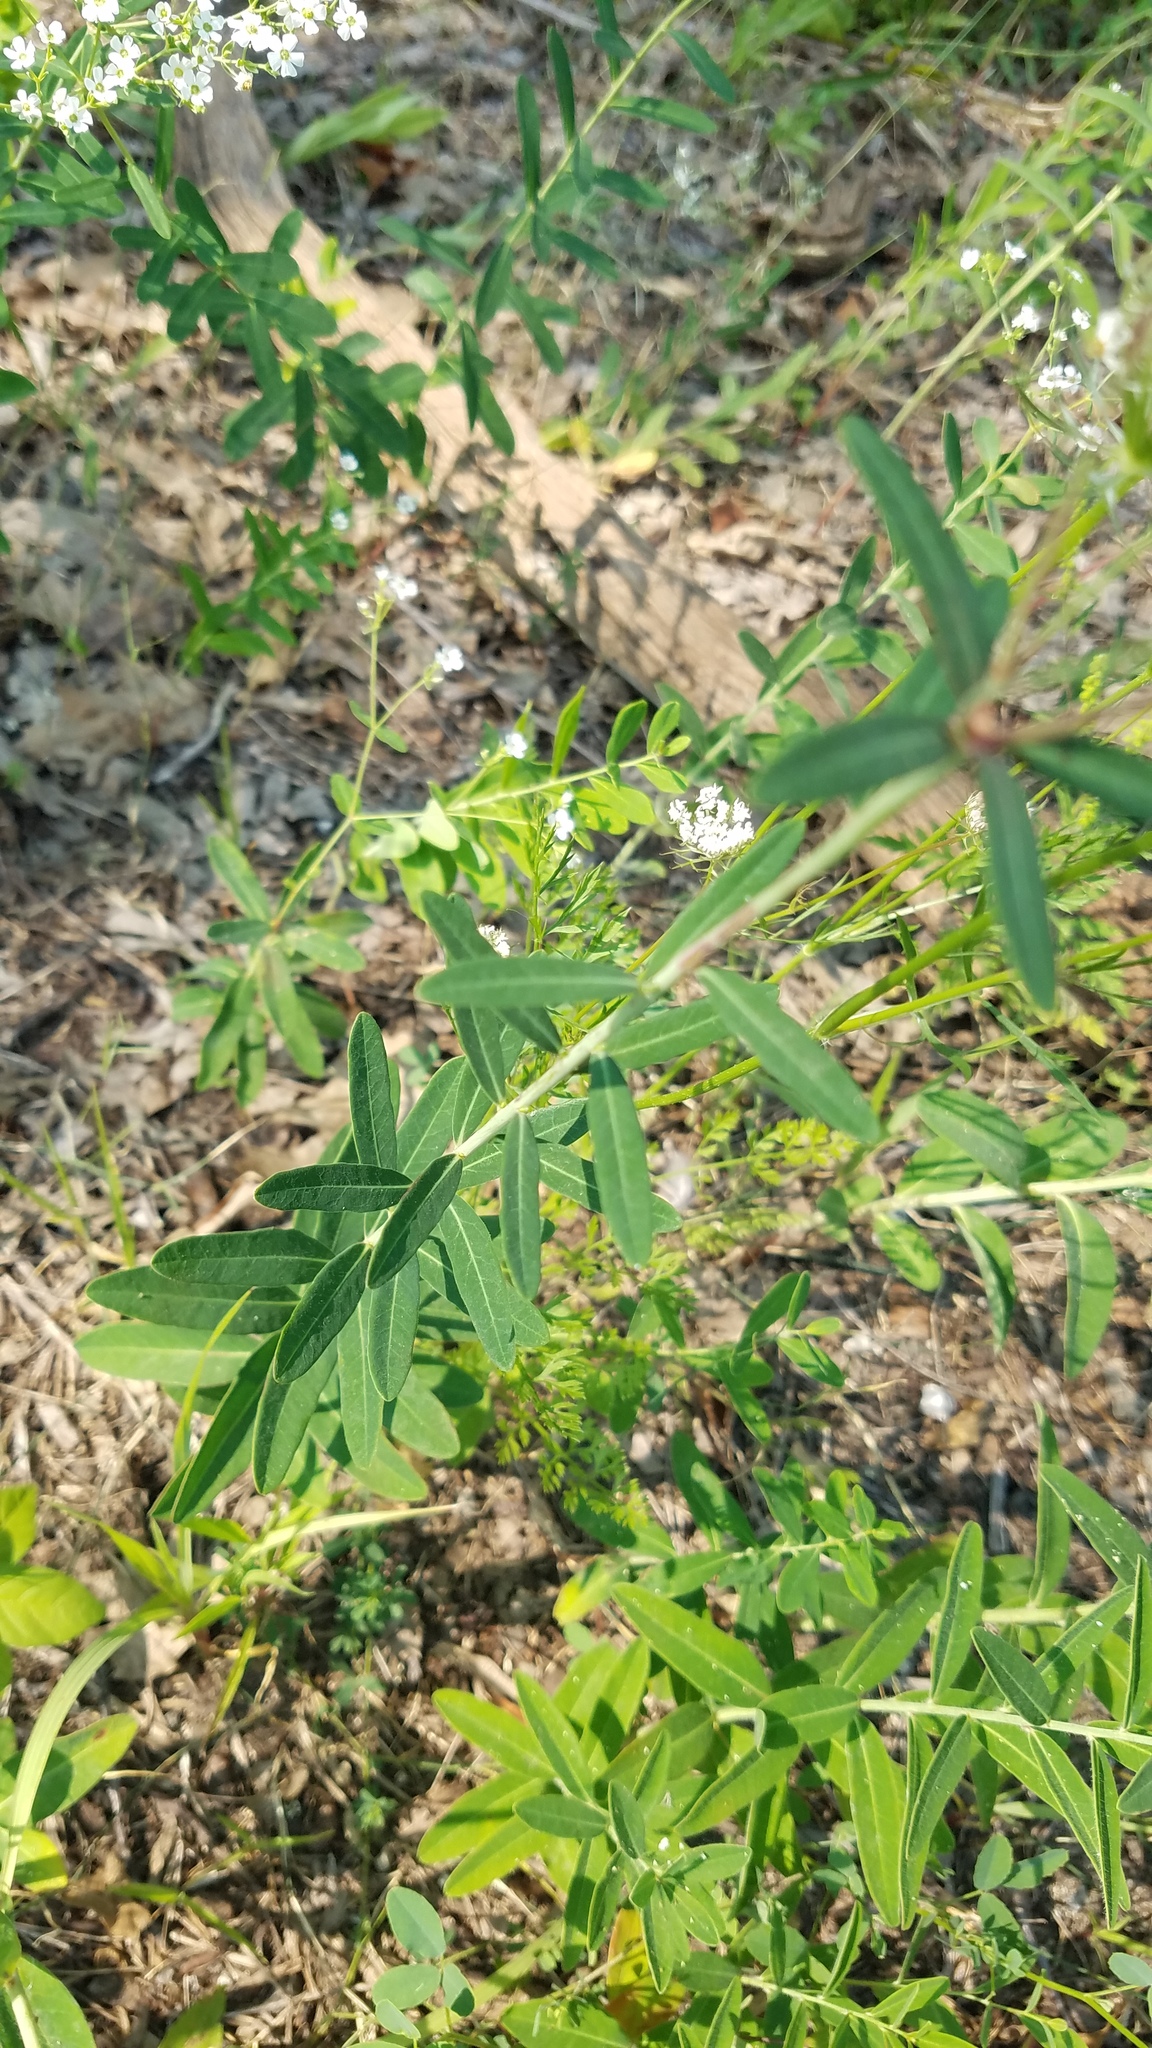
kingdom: Plantae
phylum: Tracheophyta
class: Magnoliopsida
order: Malpighiales
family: Euphorbiaceae
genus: Euphorbia
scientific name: Euphorbia corollata
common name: Flowering spurge
